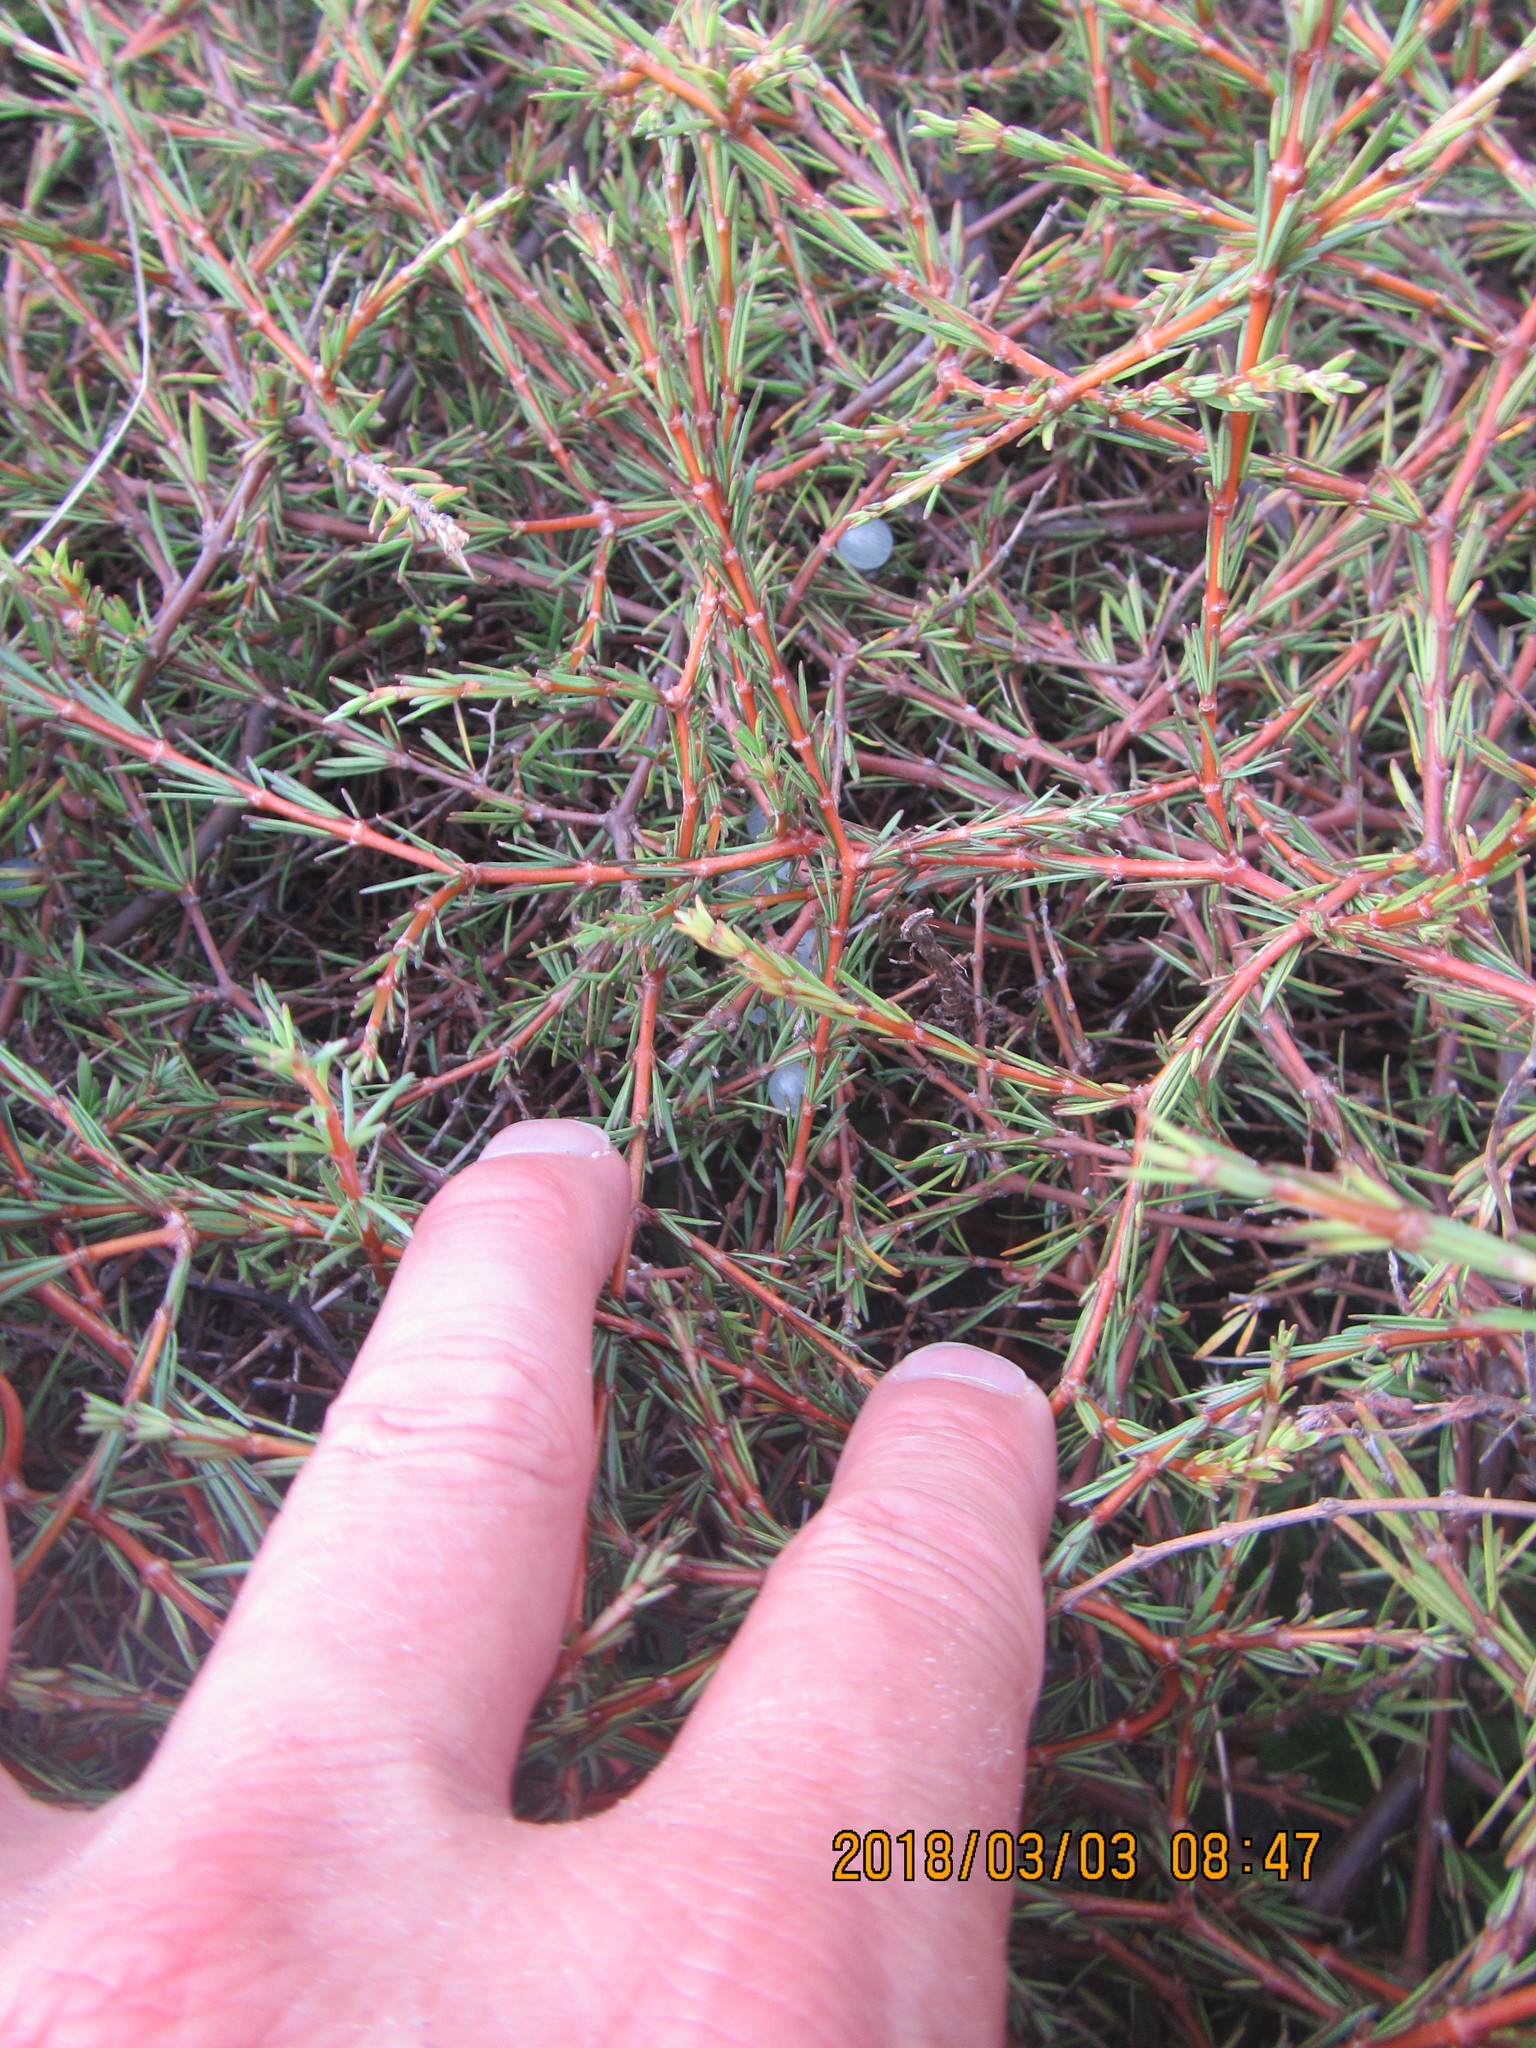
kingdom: Plantae
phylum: Tracheophyta
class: Magnoliopsida
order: Gentianales
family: Rubiaceae
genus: Coprosma
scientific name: Coprosma acerosa
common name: Sand coprosma
